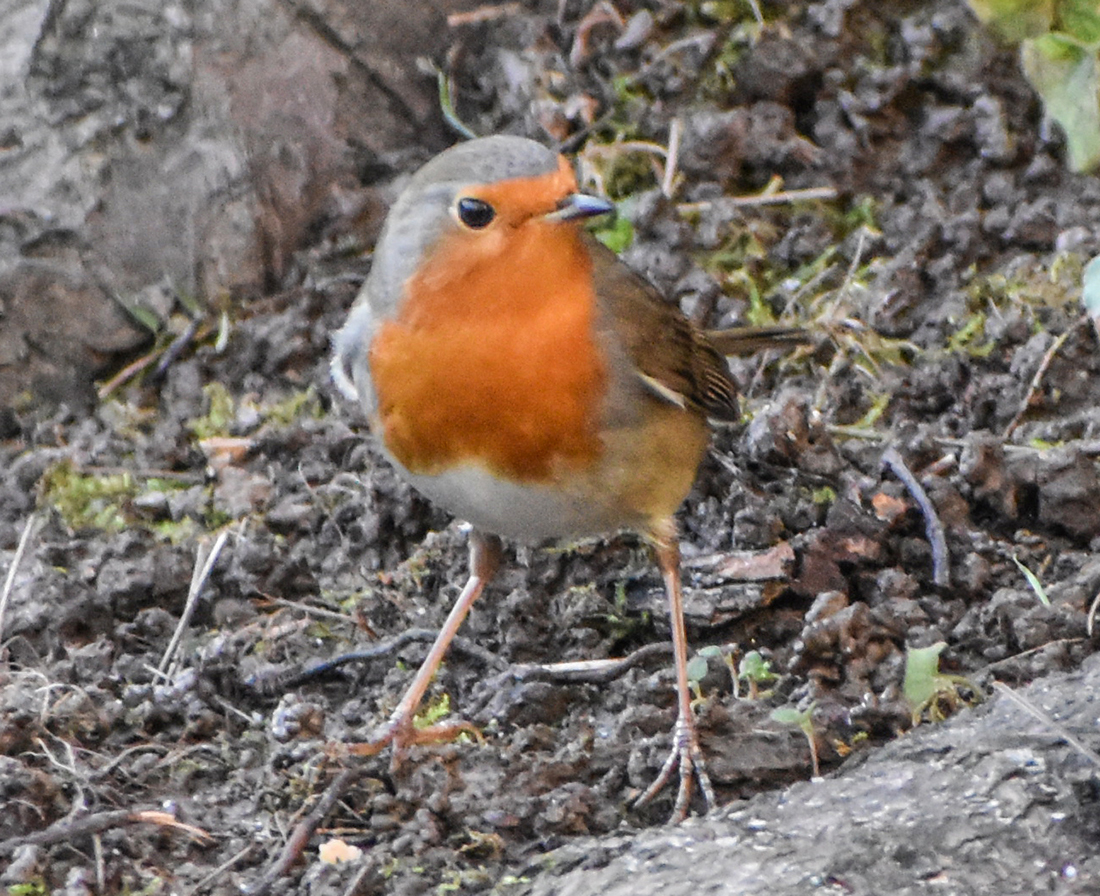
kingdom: Animalia
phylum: Chordata
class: Aves
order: Passeriformes
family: Muscicapidae
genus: Erithacus
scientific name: Erithacus rubecula
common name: European robin
